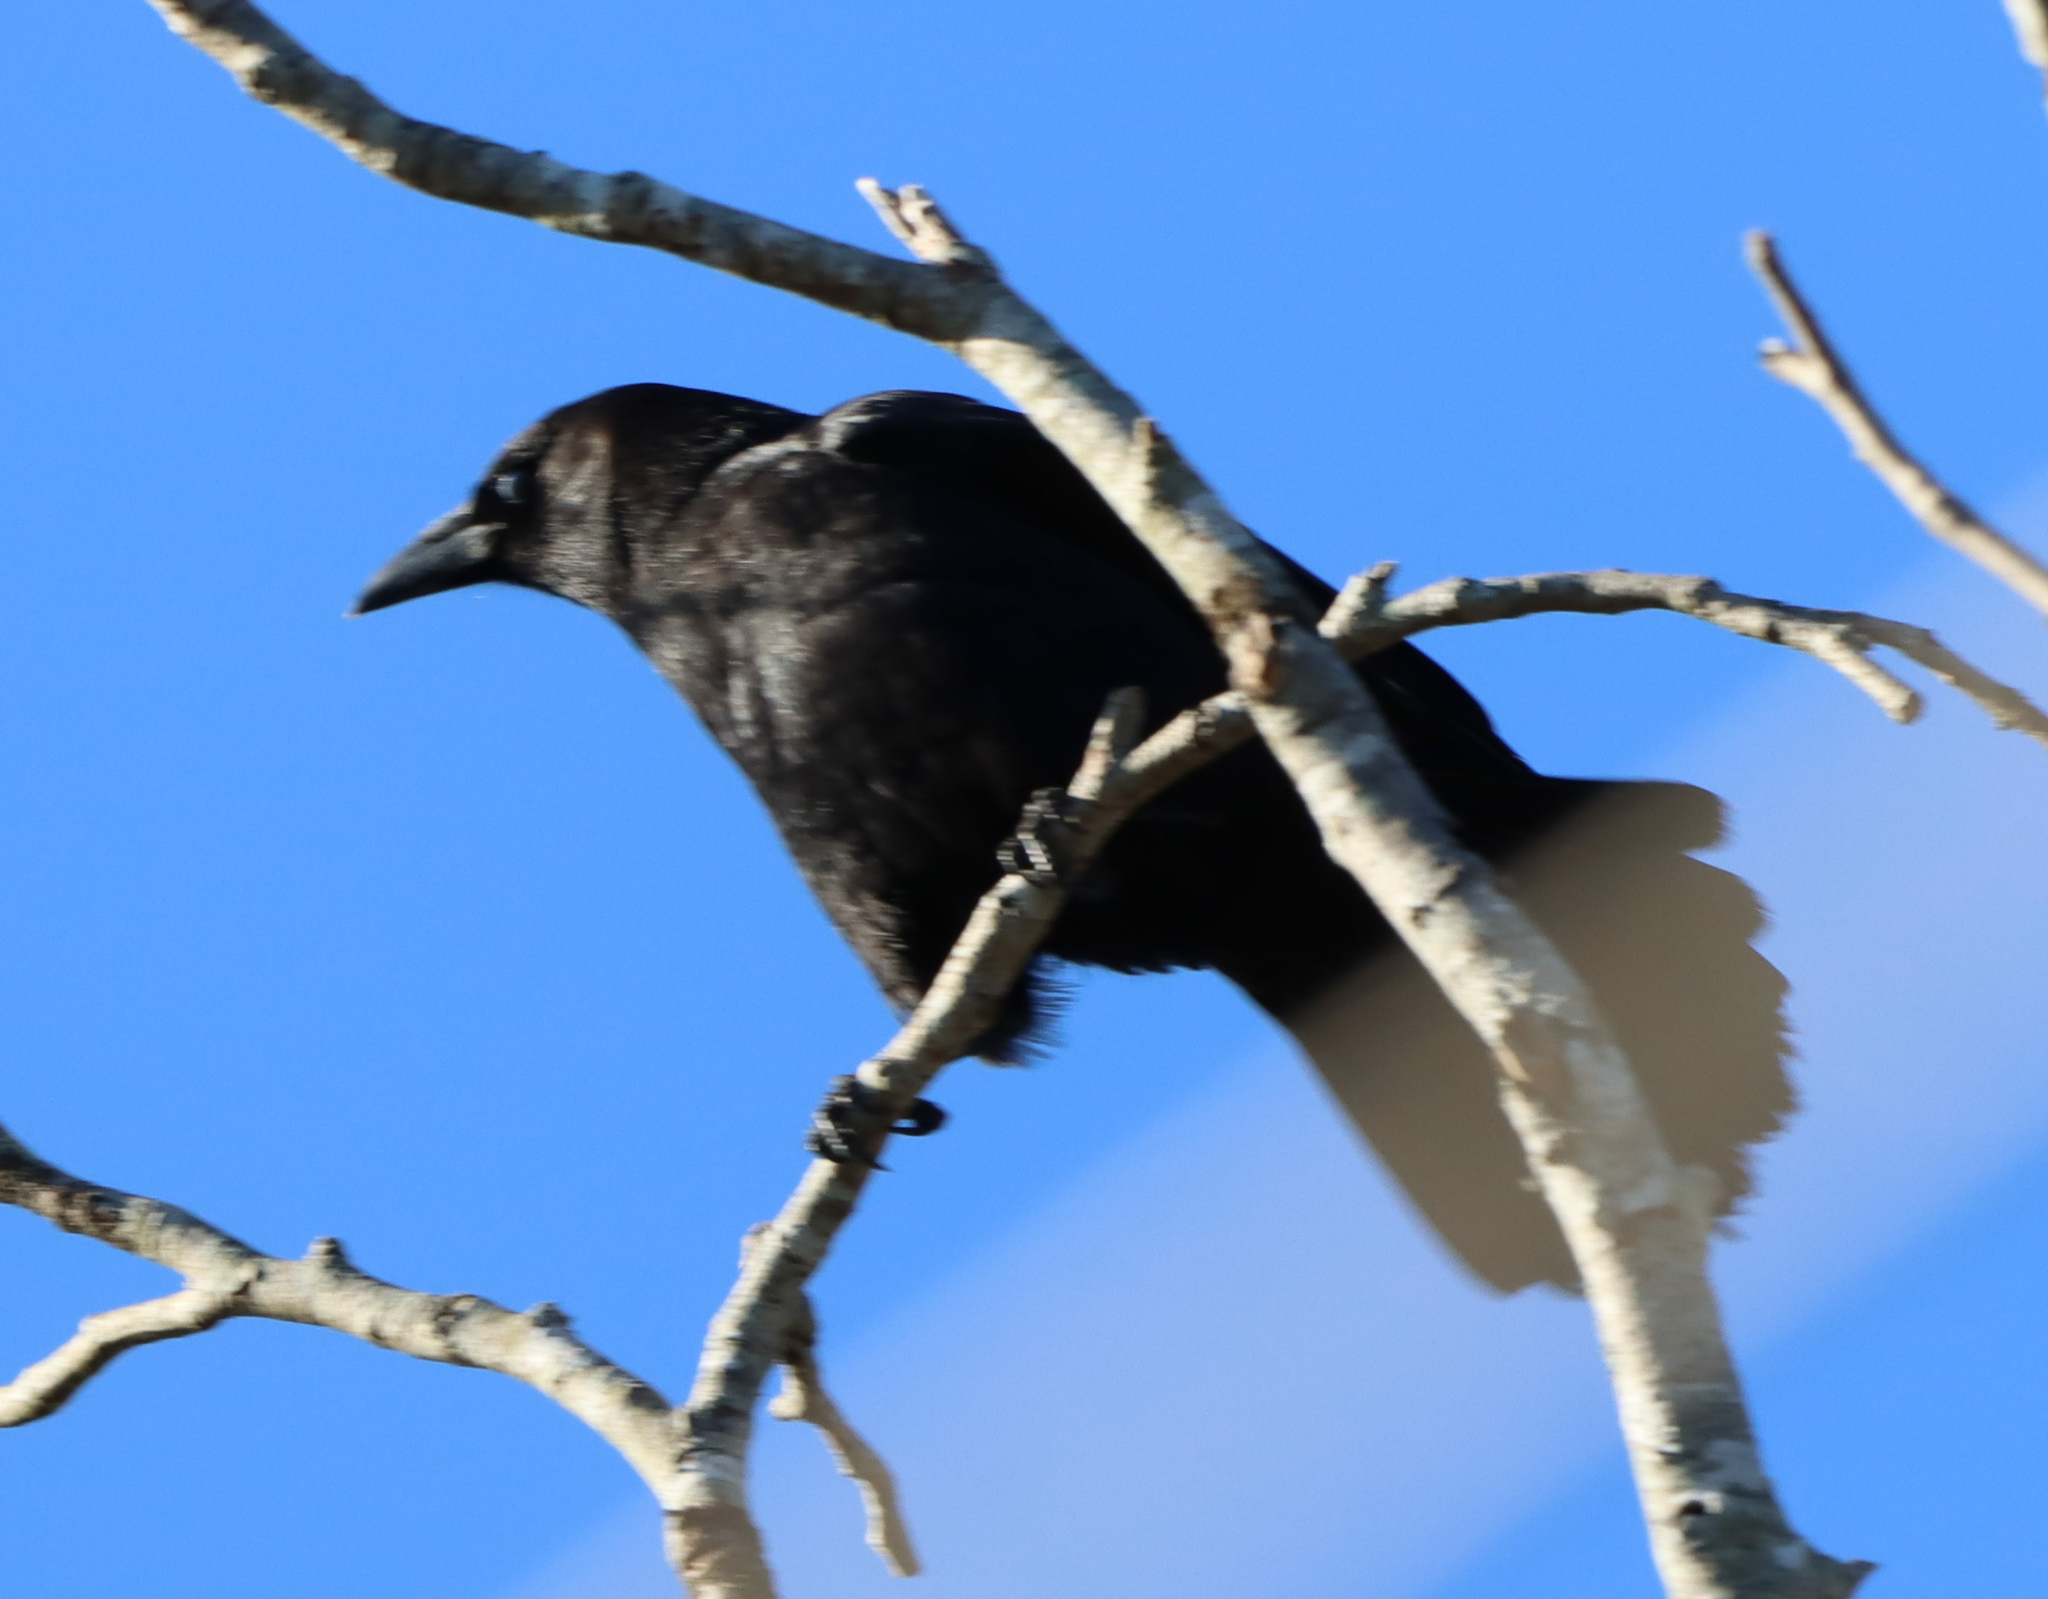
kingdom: Animalia
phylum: Chordata
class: Aves
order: Passeriformes
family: Corvidae
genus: Corvus
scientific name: Corvus brachyrhynchos
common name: American crow
